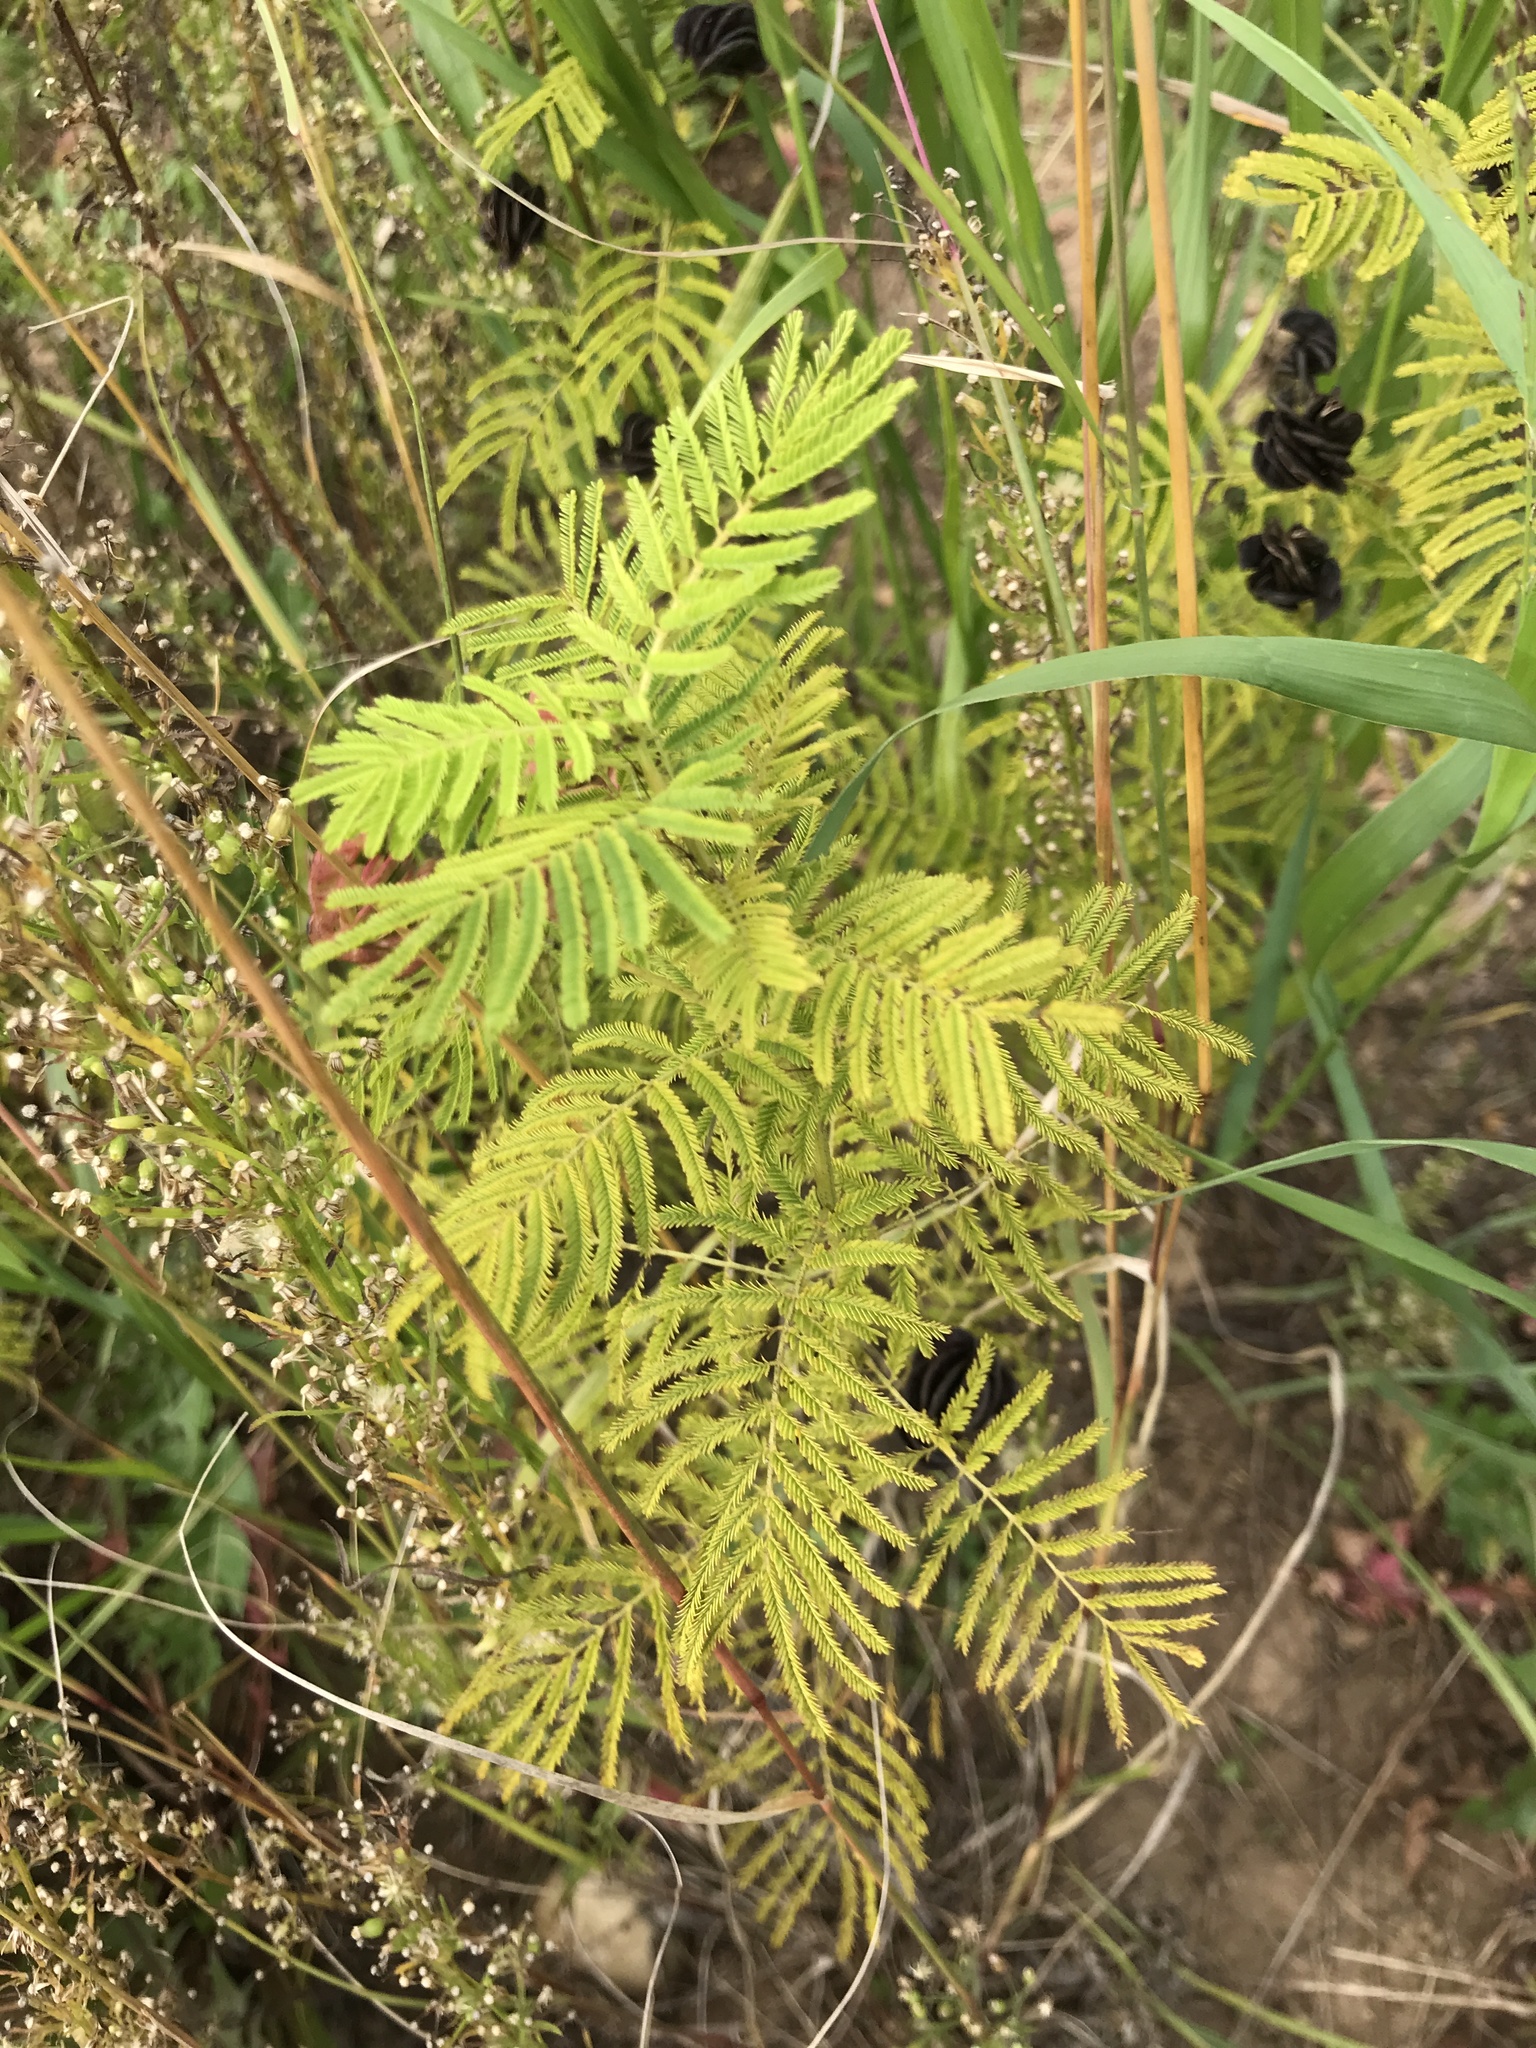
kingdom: Plantae
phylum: Tracheophyta
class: Magnoliopsida
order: Fabales
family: Fabaceae
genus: Desmanthus
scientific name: Desmanthus illinoensis
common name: Illinois bundle-flower
